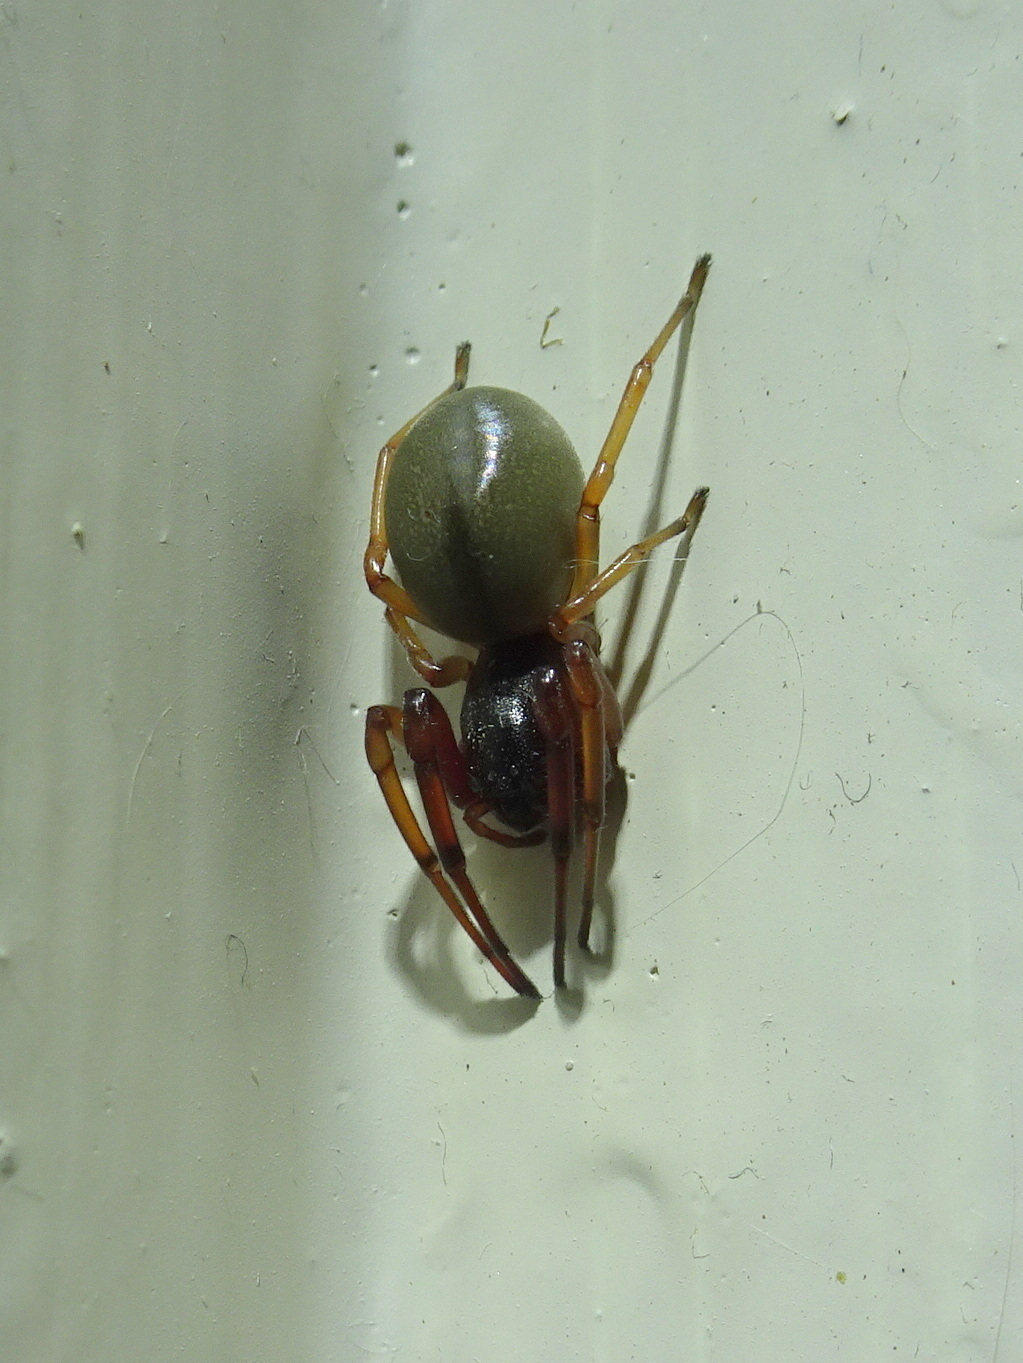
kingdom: Animalia
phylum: Arthropoda
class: Arachnida
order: Araneae
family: Trachelidae
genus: Trachelas
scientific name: Trachelas tranquillus
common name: Broad-faced sac spider
